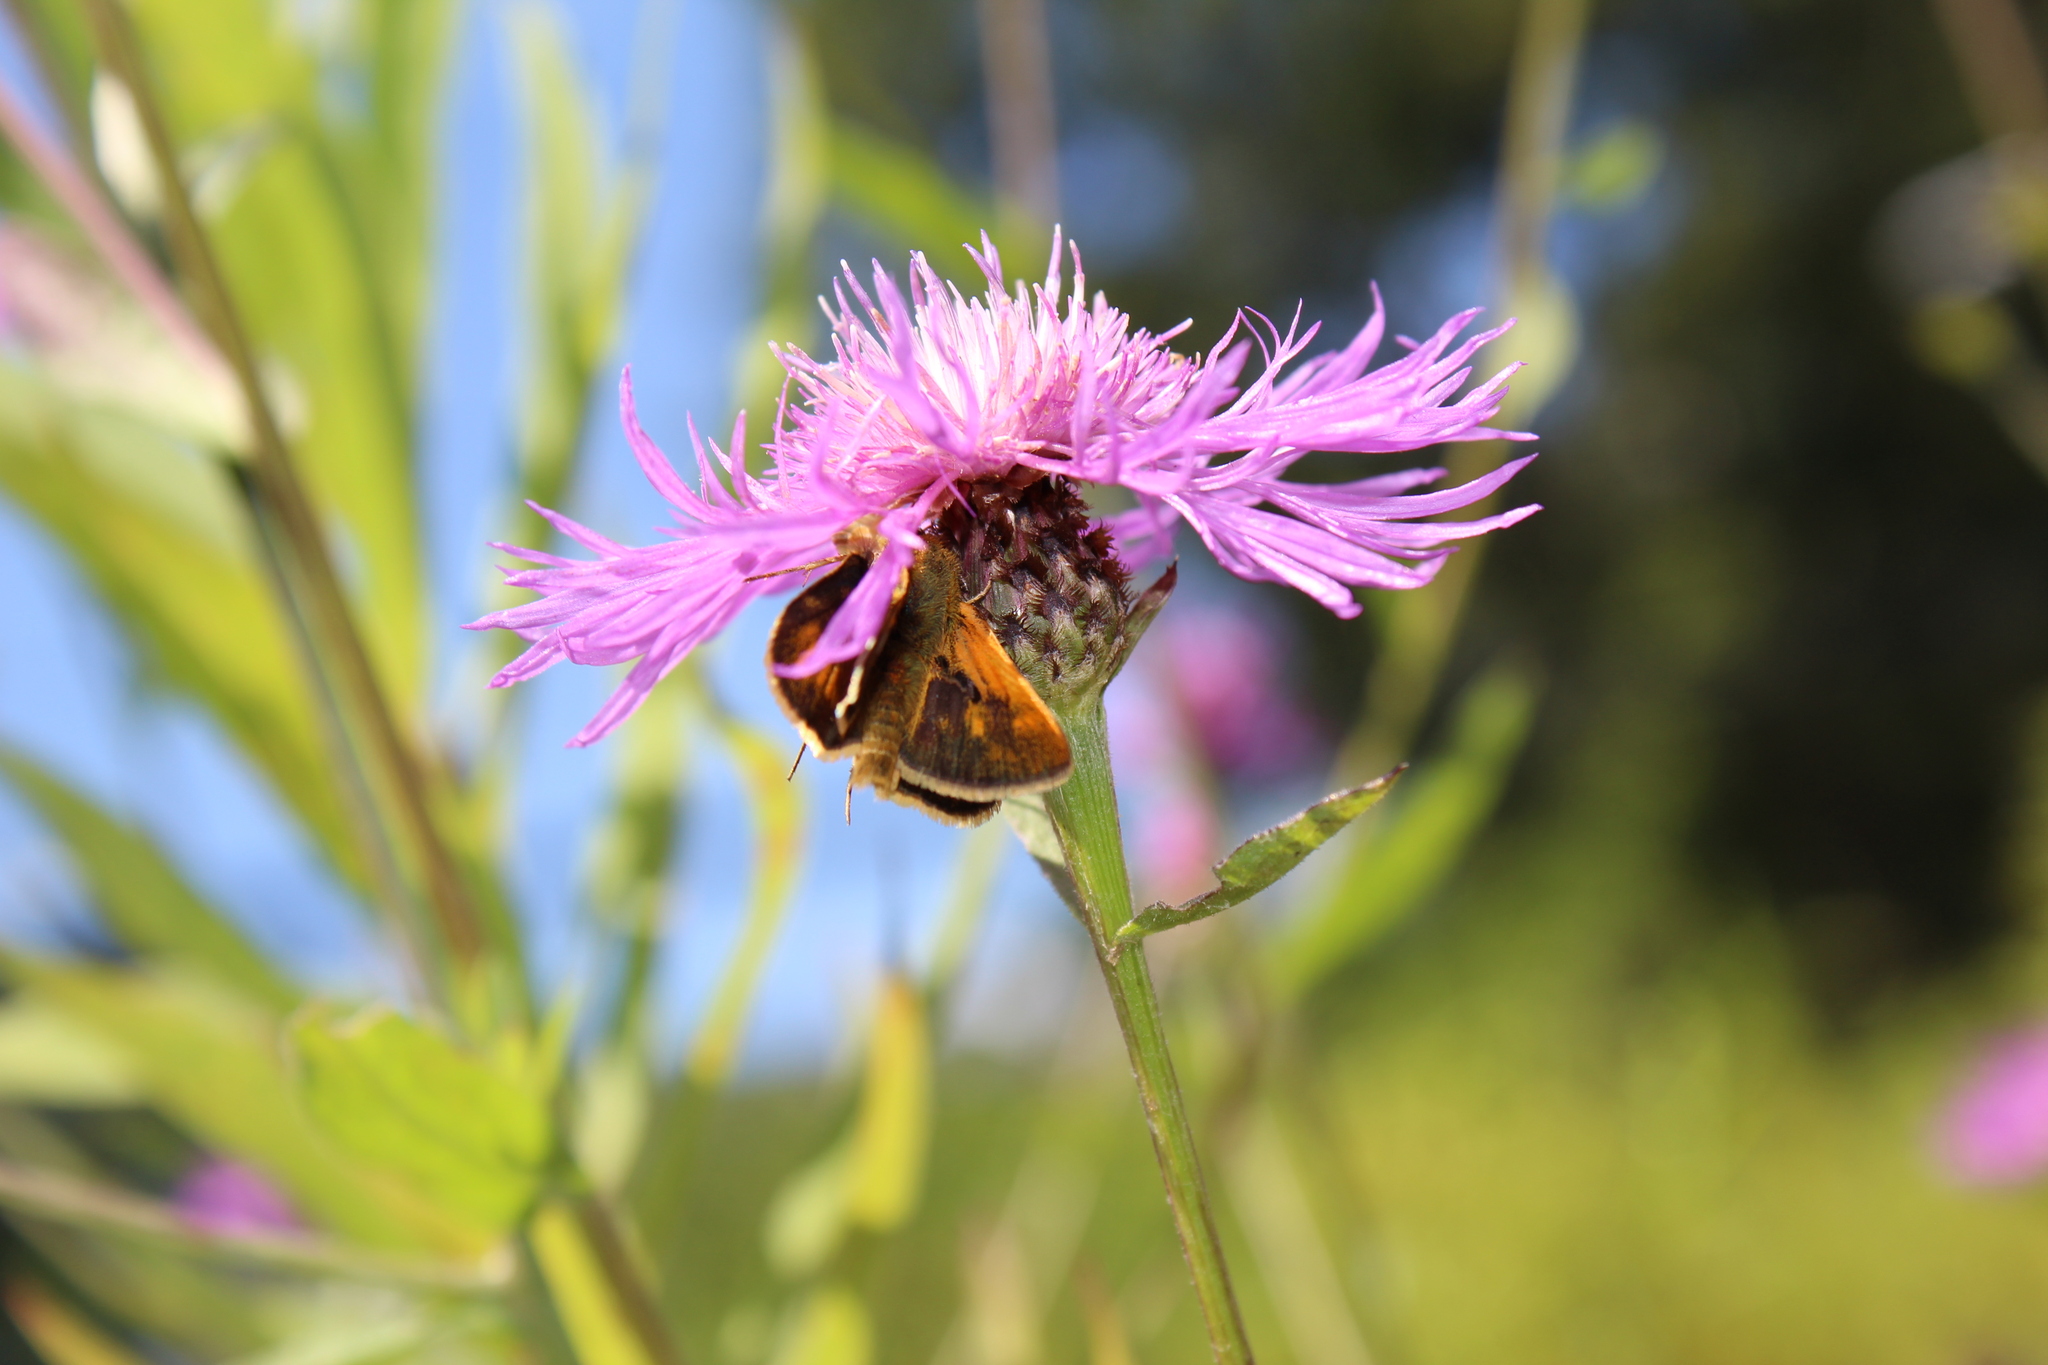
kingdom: Animalia
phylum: Arthropoda
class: Insecta
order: Lepidoptera
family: Hesperiidae
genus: Polites
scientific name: Polites coras
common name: Peck's skipper
